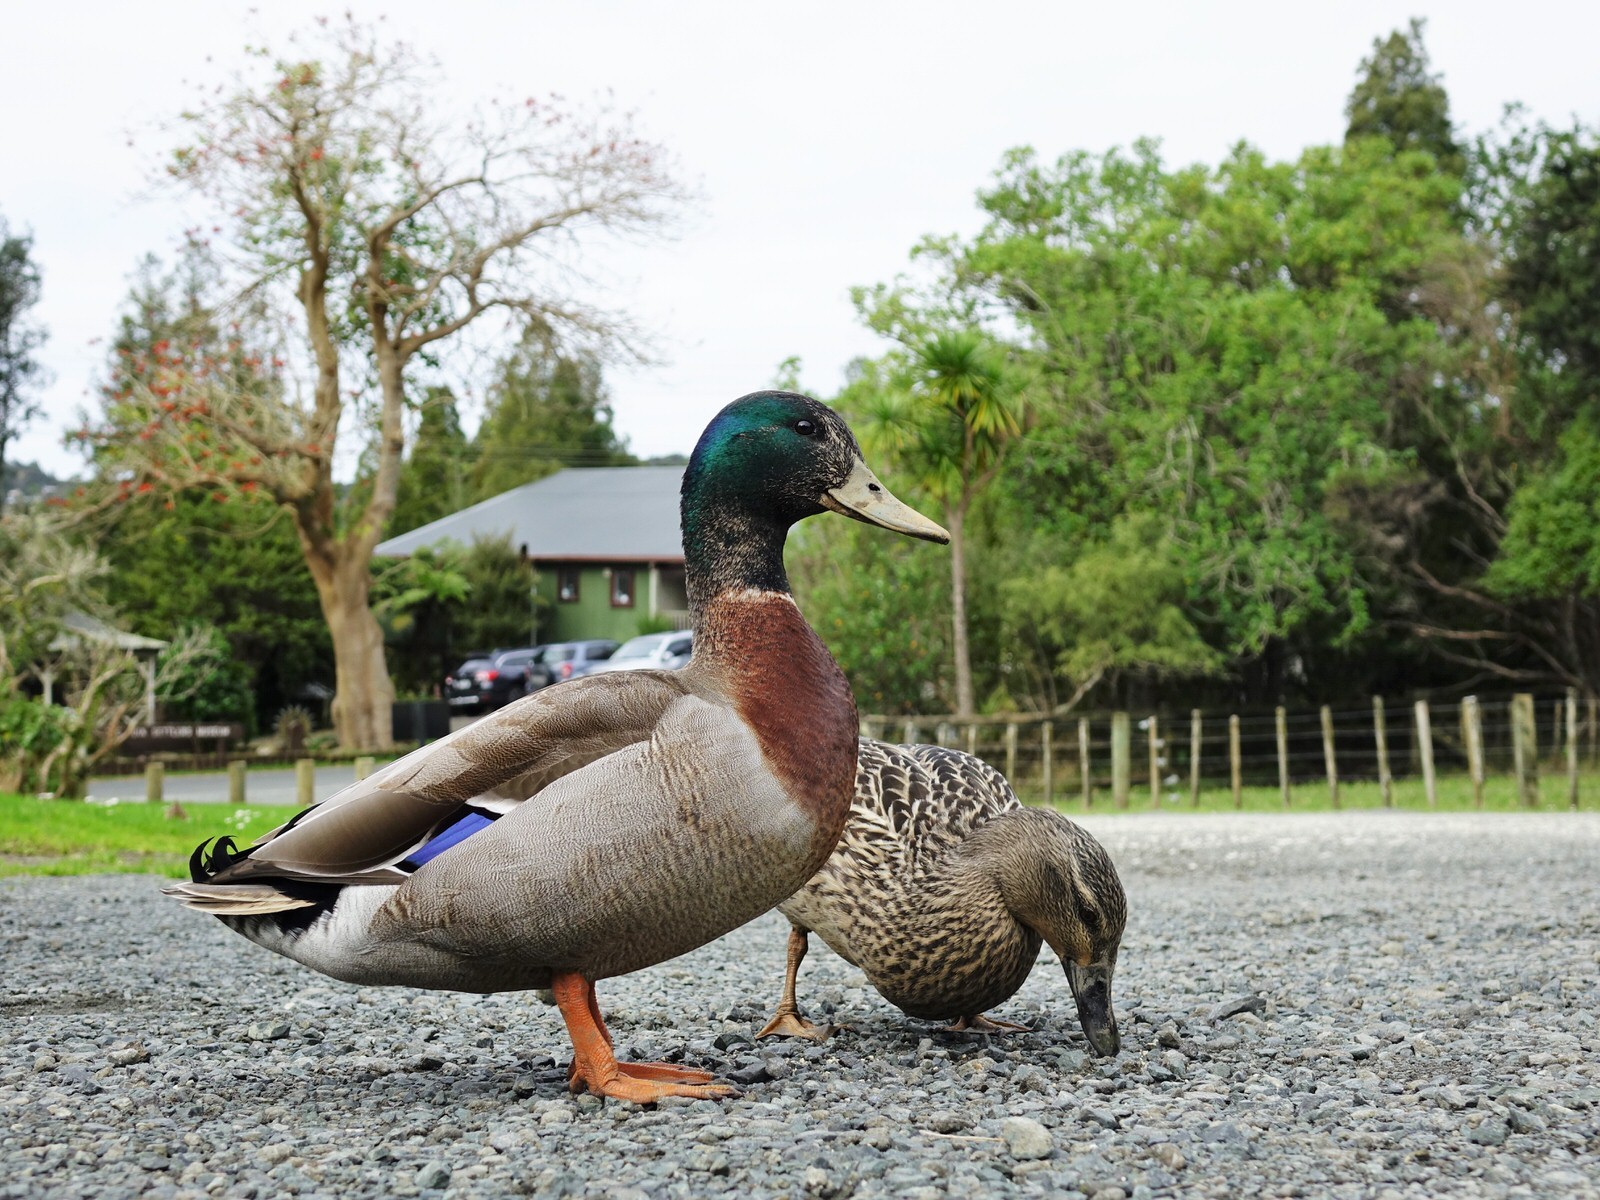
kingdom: Animalia
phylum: Chordata
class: Aves
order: Anseriformes
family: Anatidae
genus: Anas
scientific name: Anas platyrhynchos
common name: Mallard
